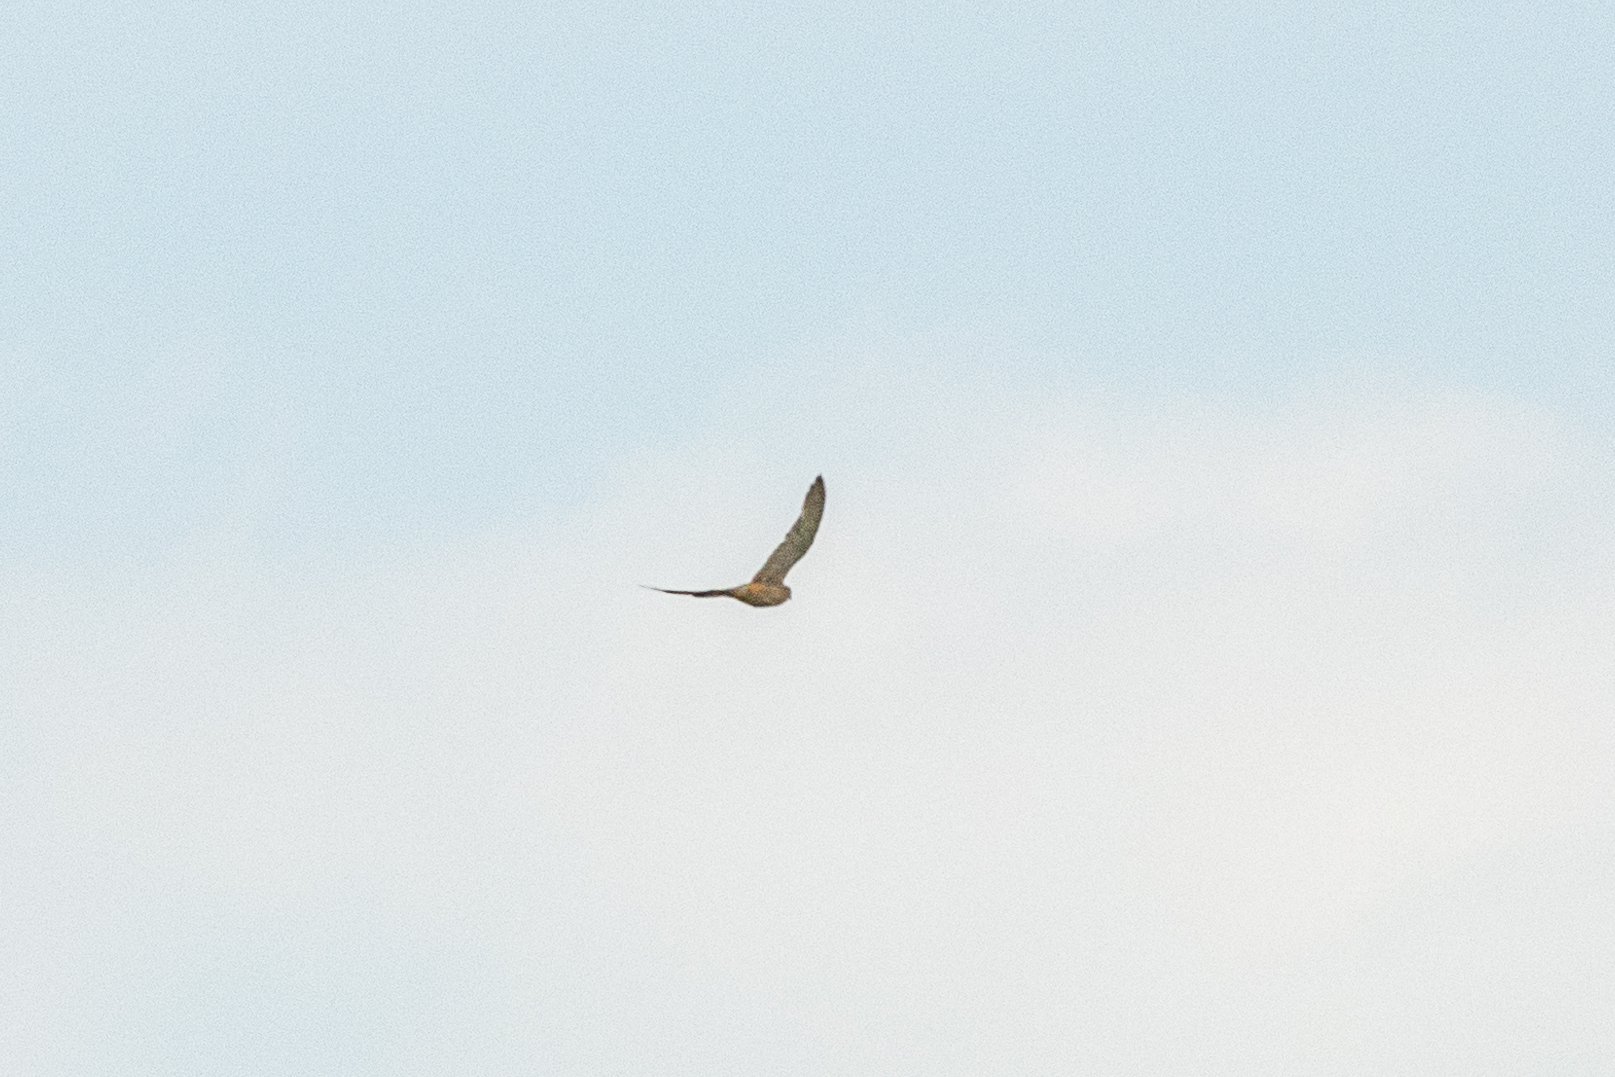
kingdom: Animalia
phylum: Chordata
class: Aves
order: Falconiformes
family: Falconidae
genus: Falco
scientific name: Falco tinnunculus
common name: Common kestrel
